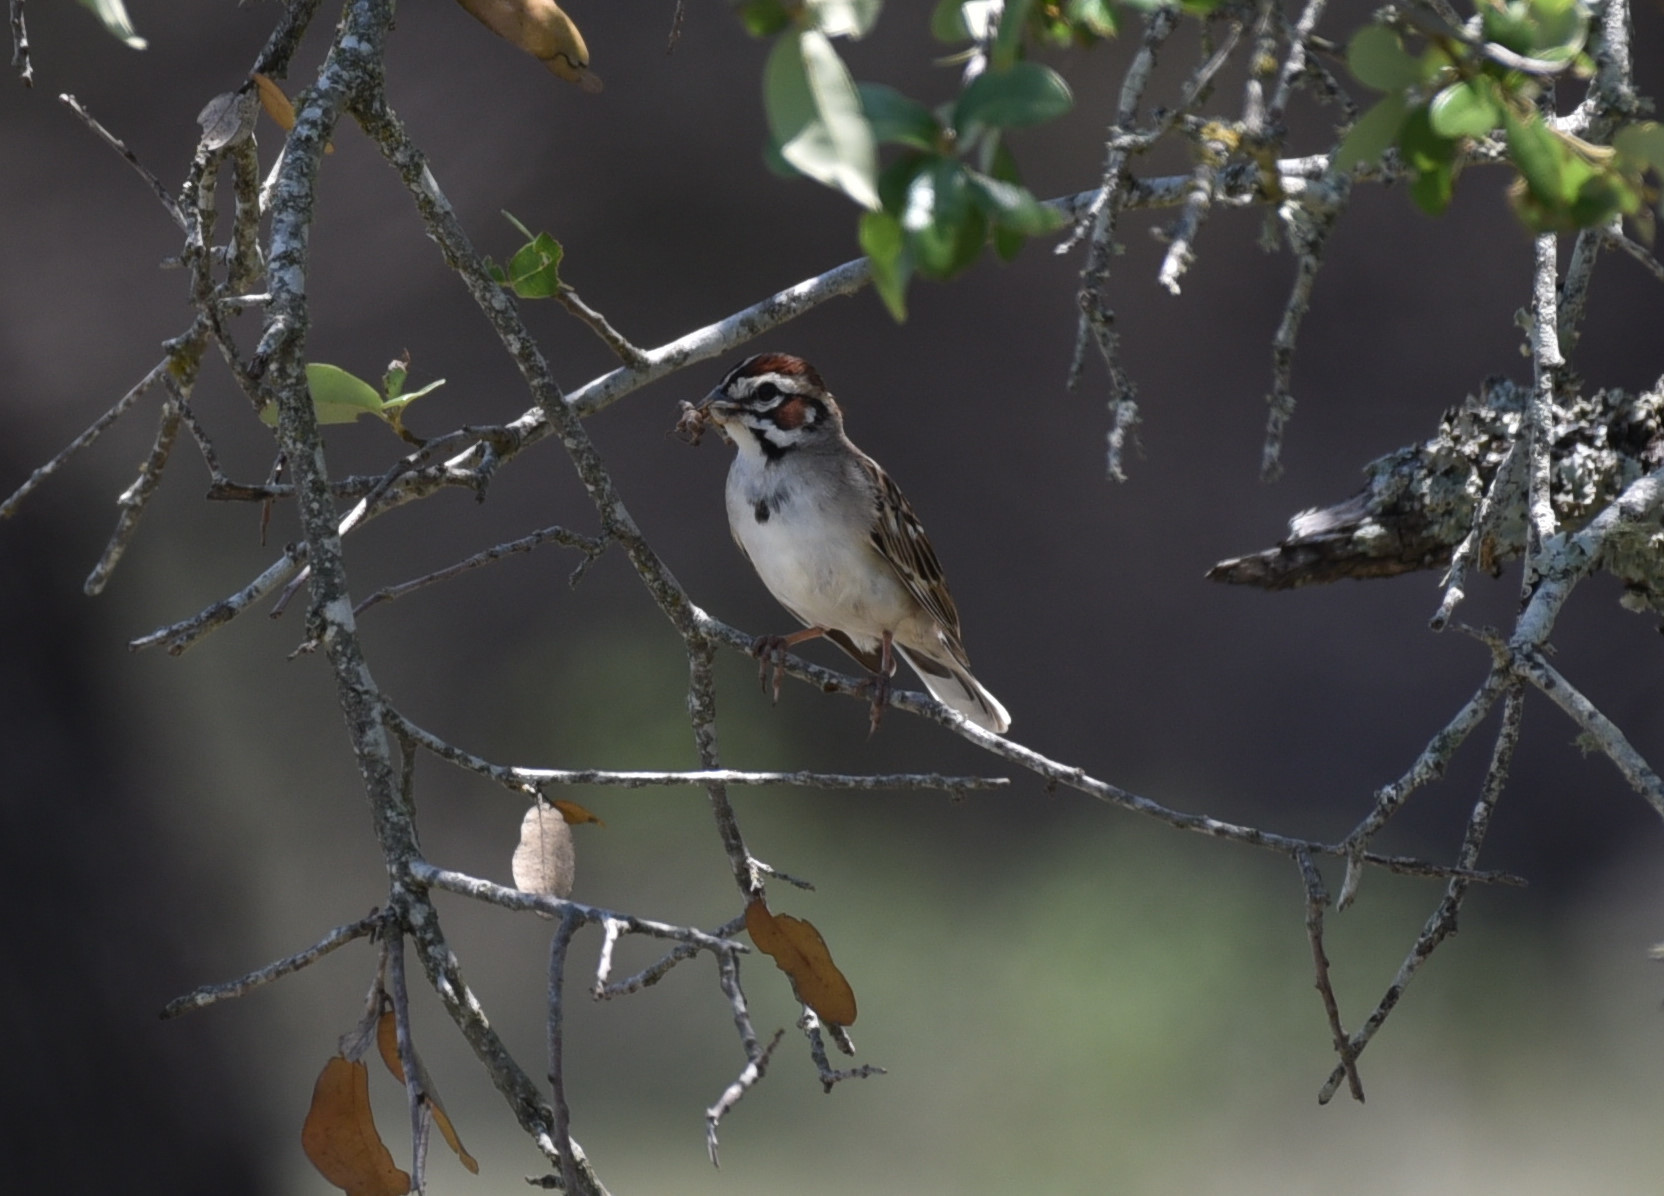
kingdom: Animalia
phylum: Chordata
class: Aves
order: Passeriformes
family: Passerellidae
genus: Chondestes
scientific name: Chondestes grammacus
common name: Lark sparrow
